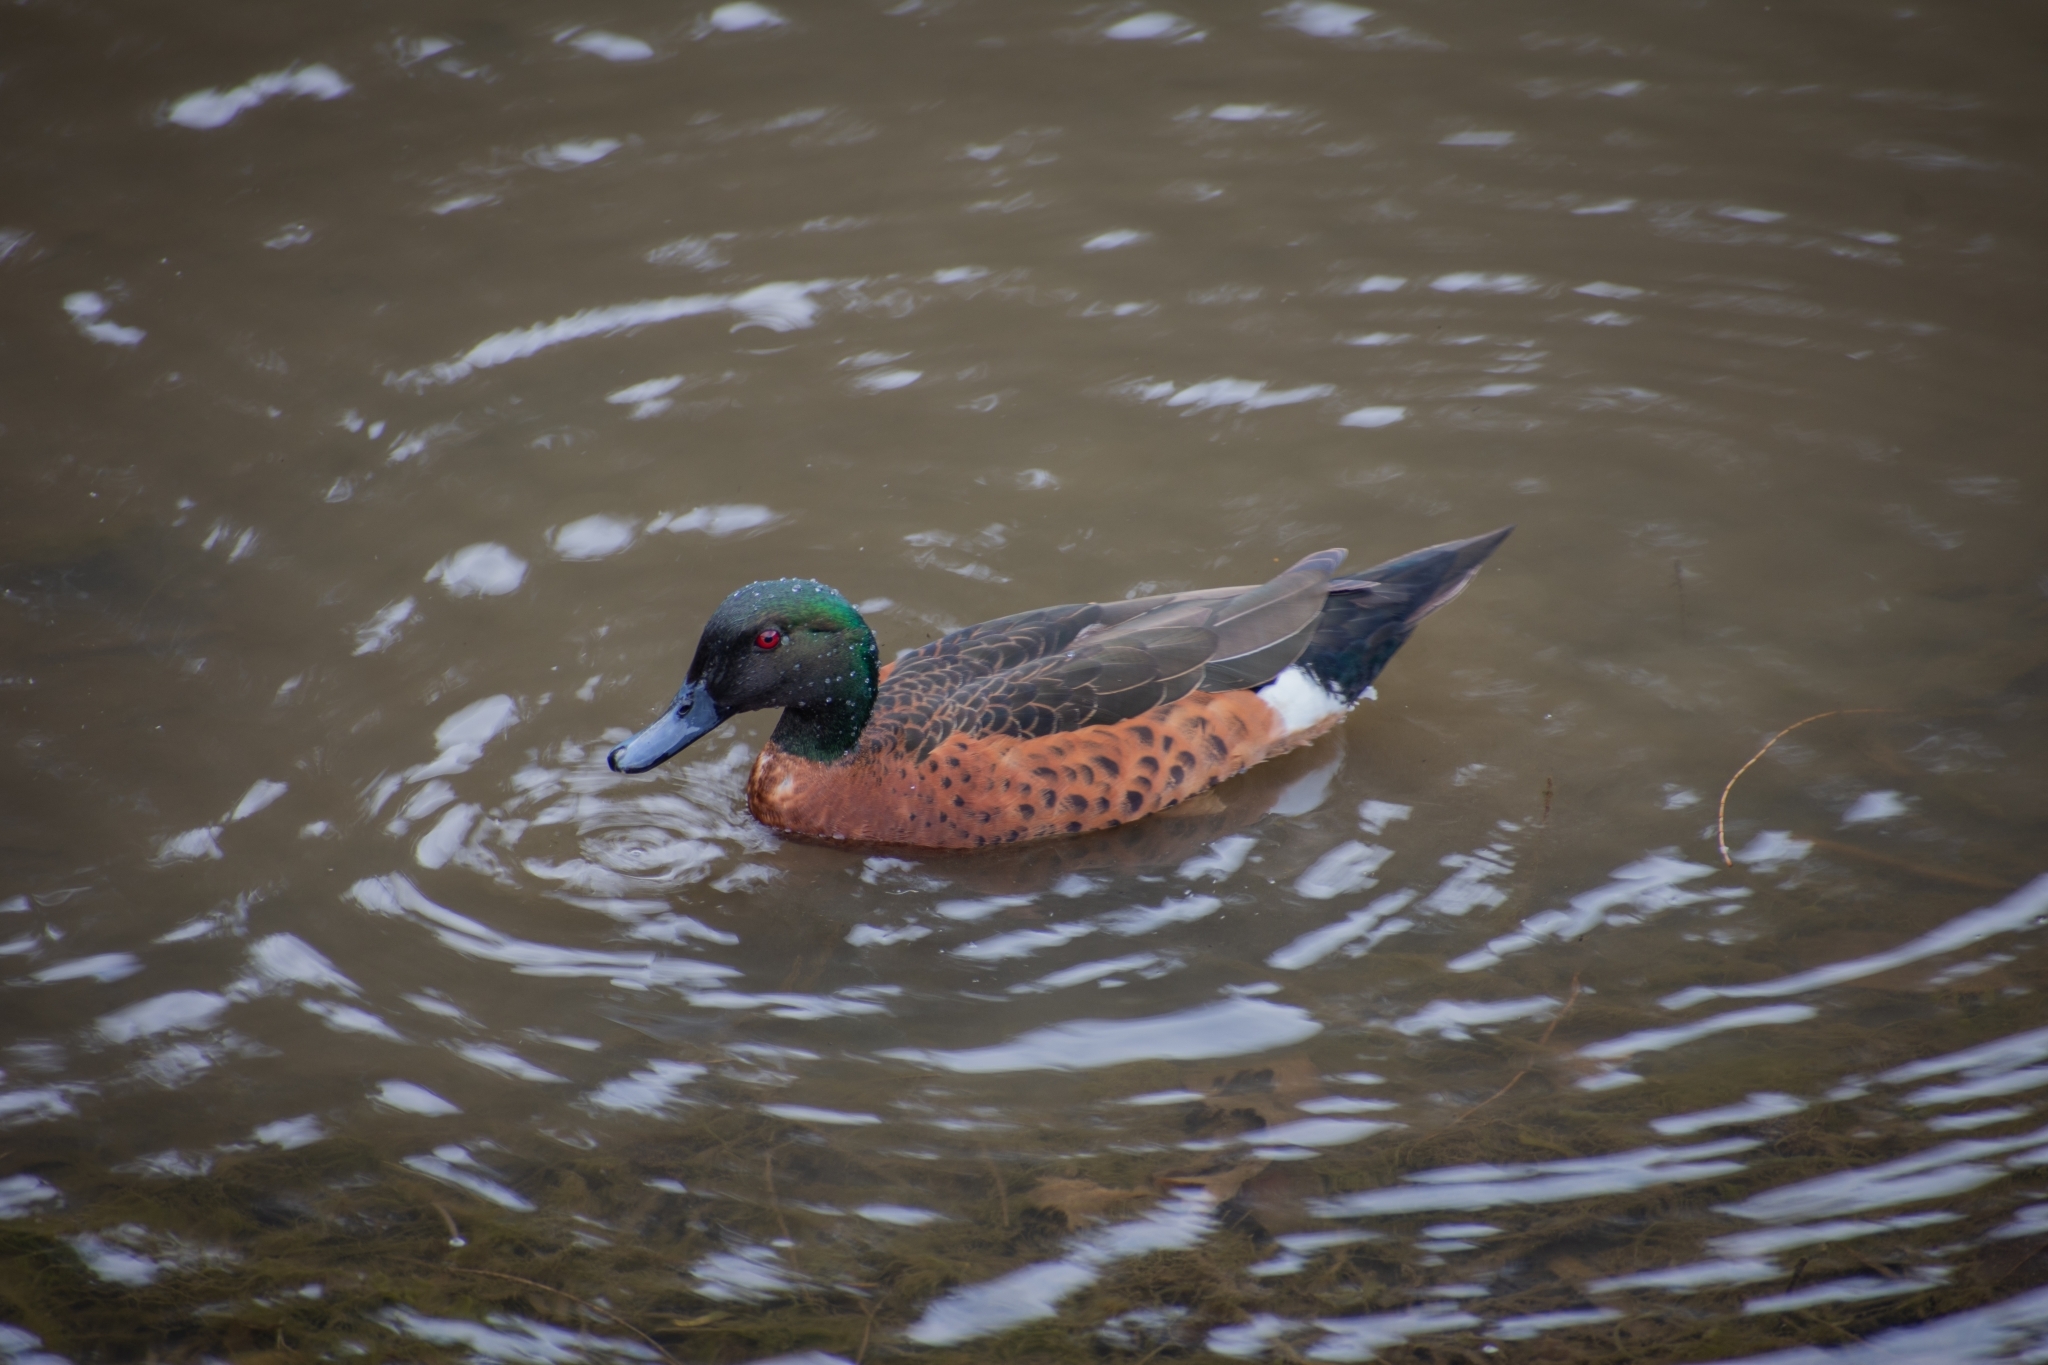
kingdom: Animalia
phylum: Chordata
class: Aves
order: Anseriformes
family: Anatidae
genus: Anas
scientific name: Anas castanea
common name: Chestnut teal
